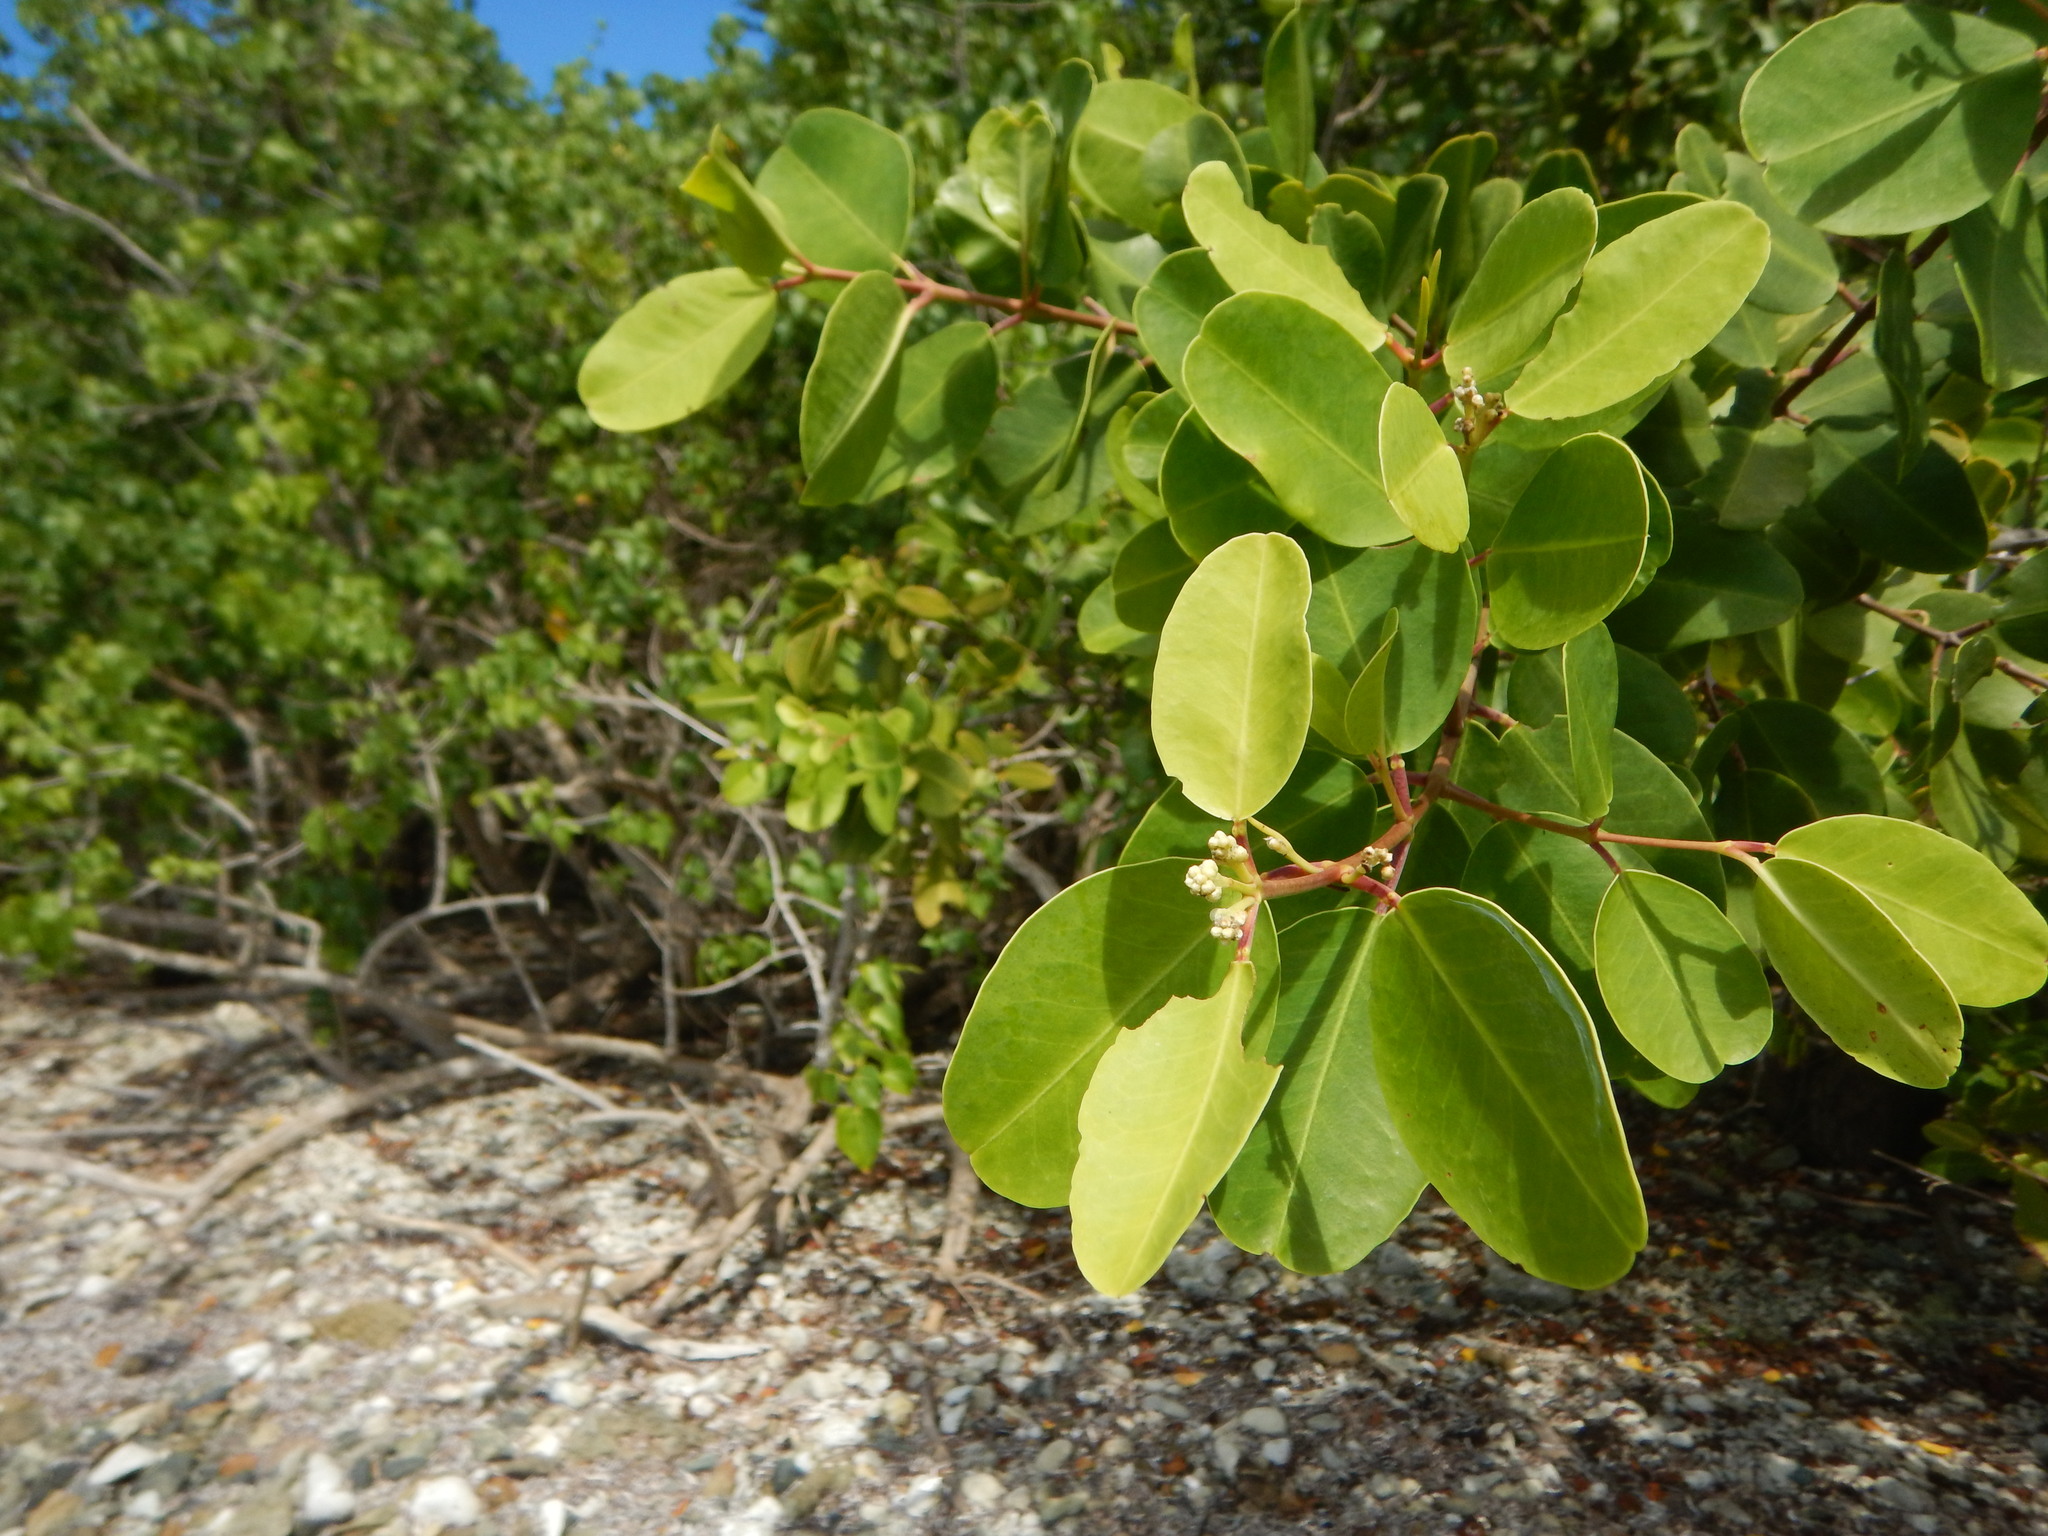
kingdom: Plantae
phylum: Tracheophyta
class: Magnoliopsida
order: Myrtales
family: Combretaceae
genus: Laguncularia
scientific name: Laguncularia racemosa
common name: White mangrove
